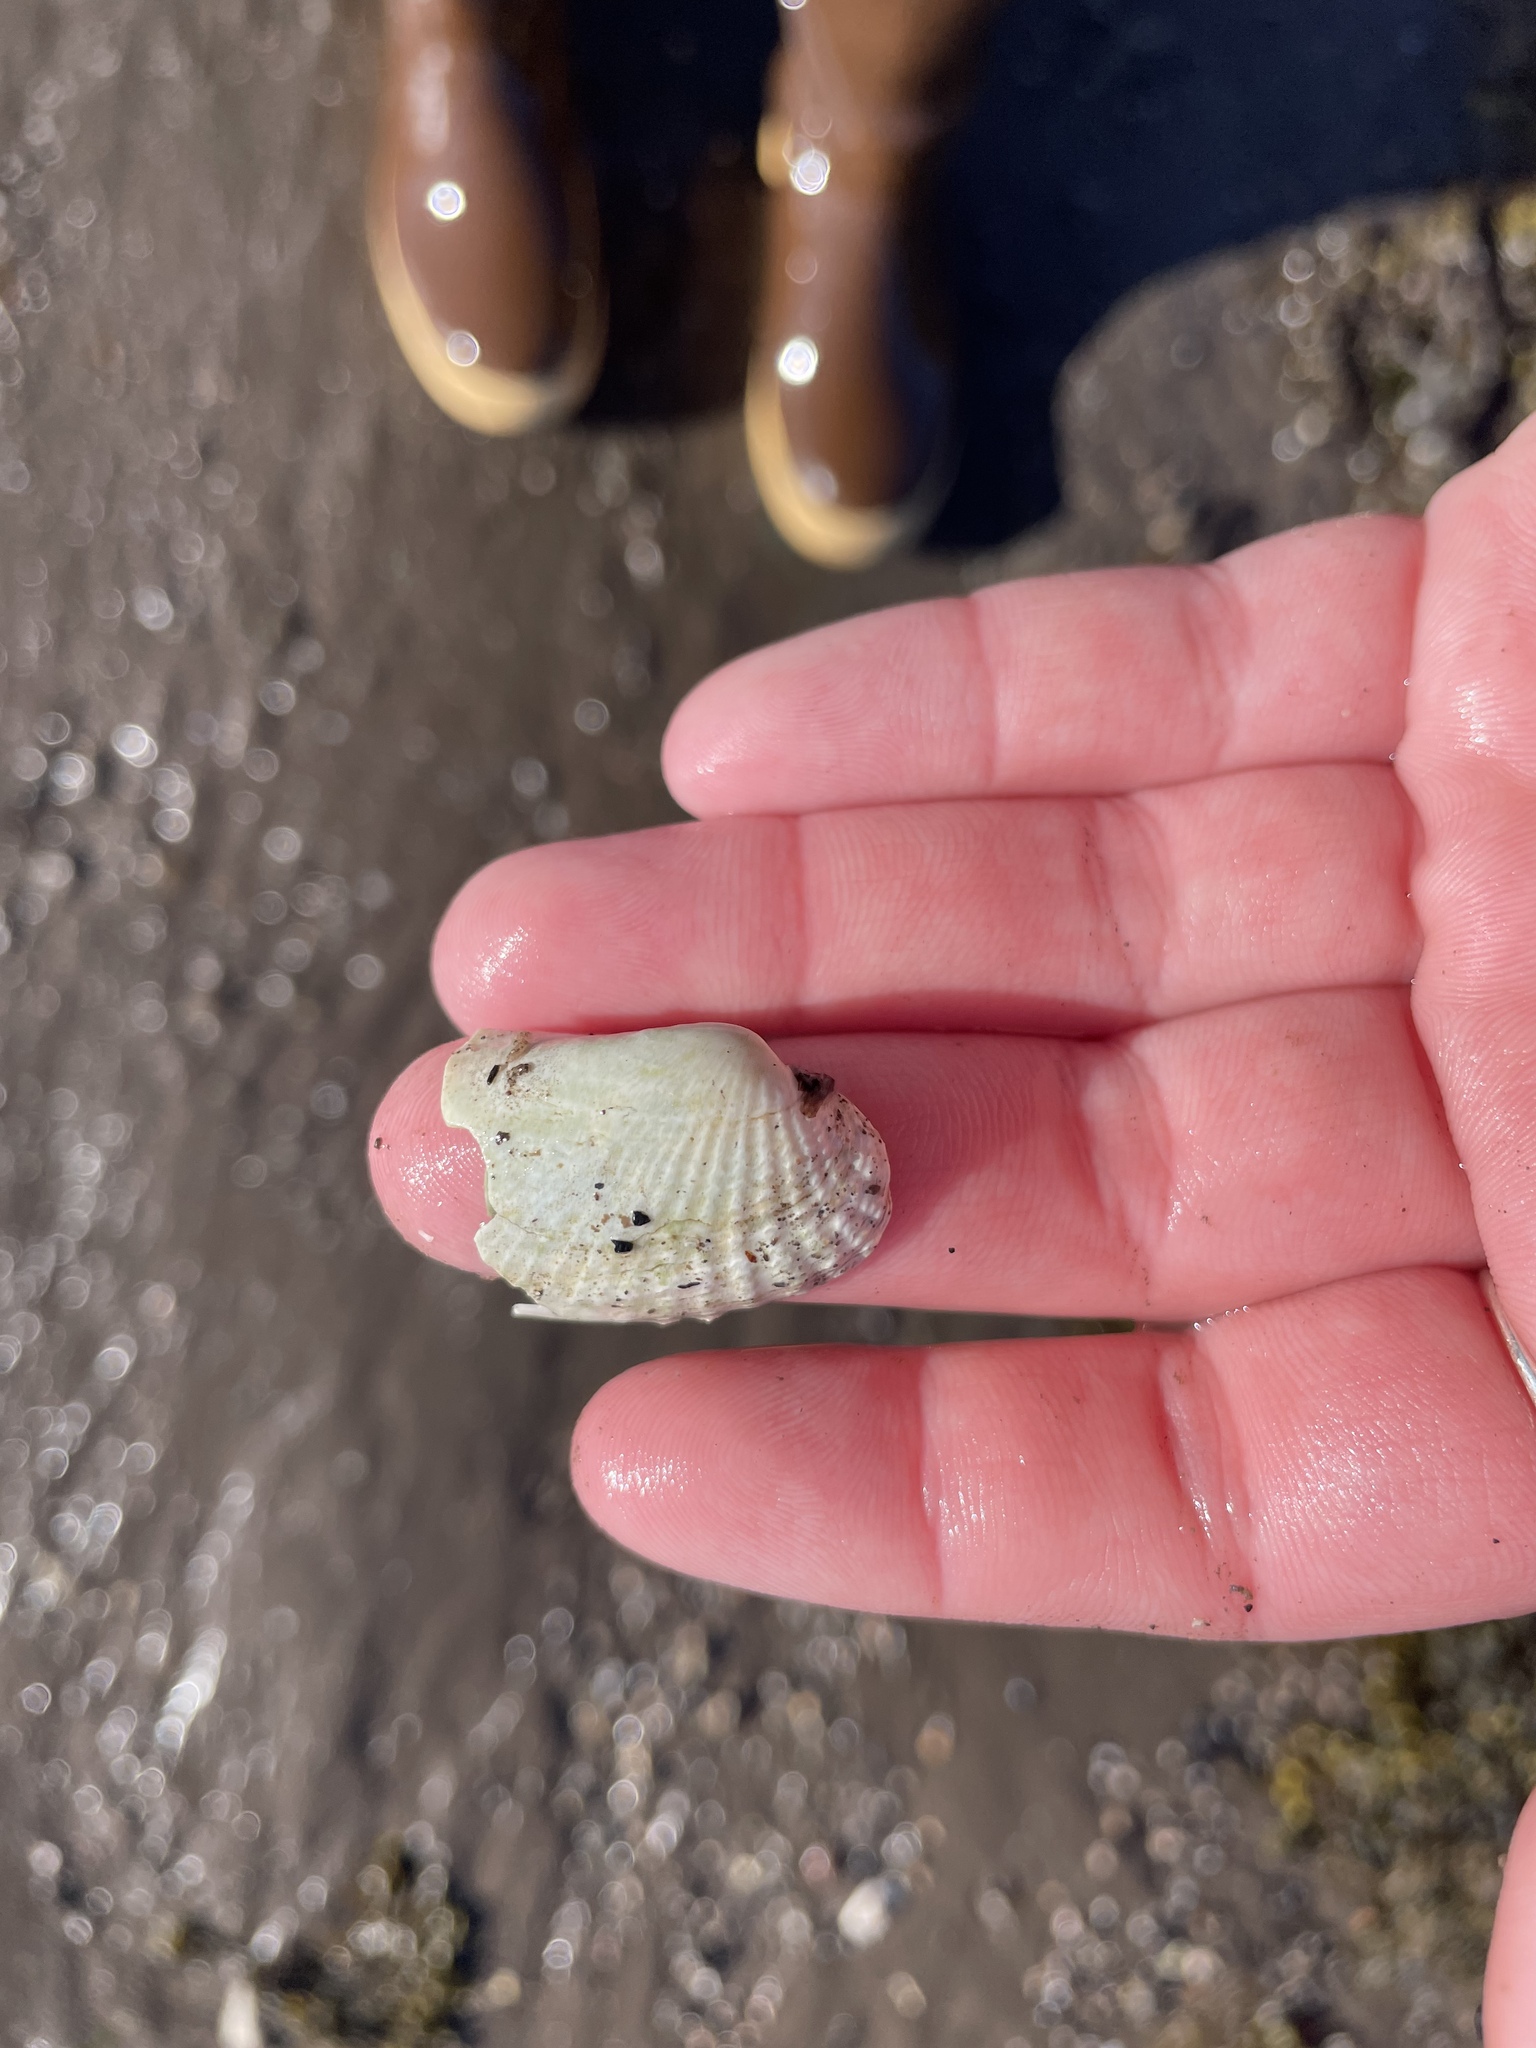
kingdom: Animalia
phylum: Mollusca
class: Bivalvia
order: Venerida
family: Veneridae
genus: Petricolaria
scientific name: Petricolaria pholadiformis
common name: American piddock
